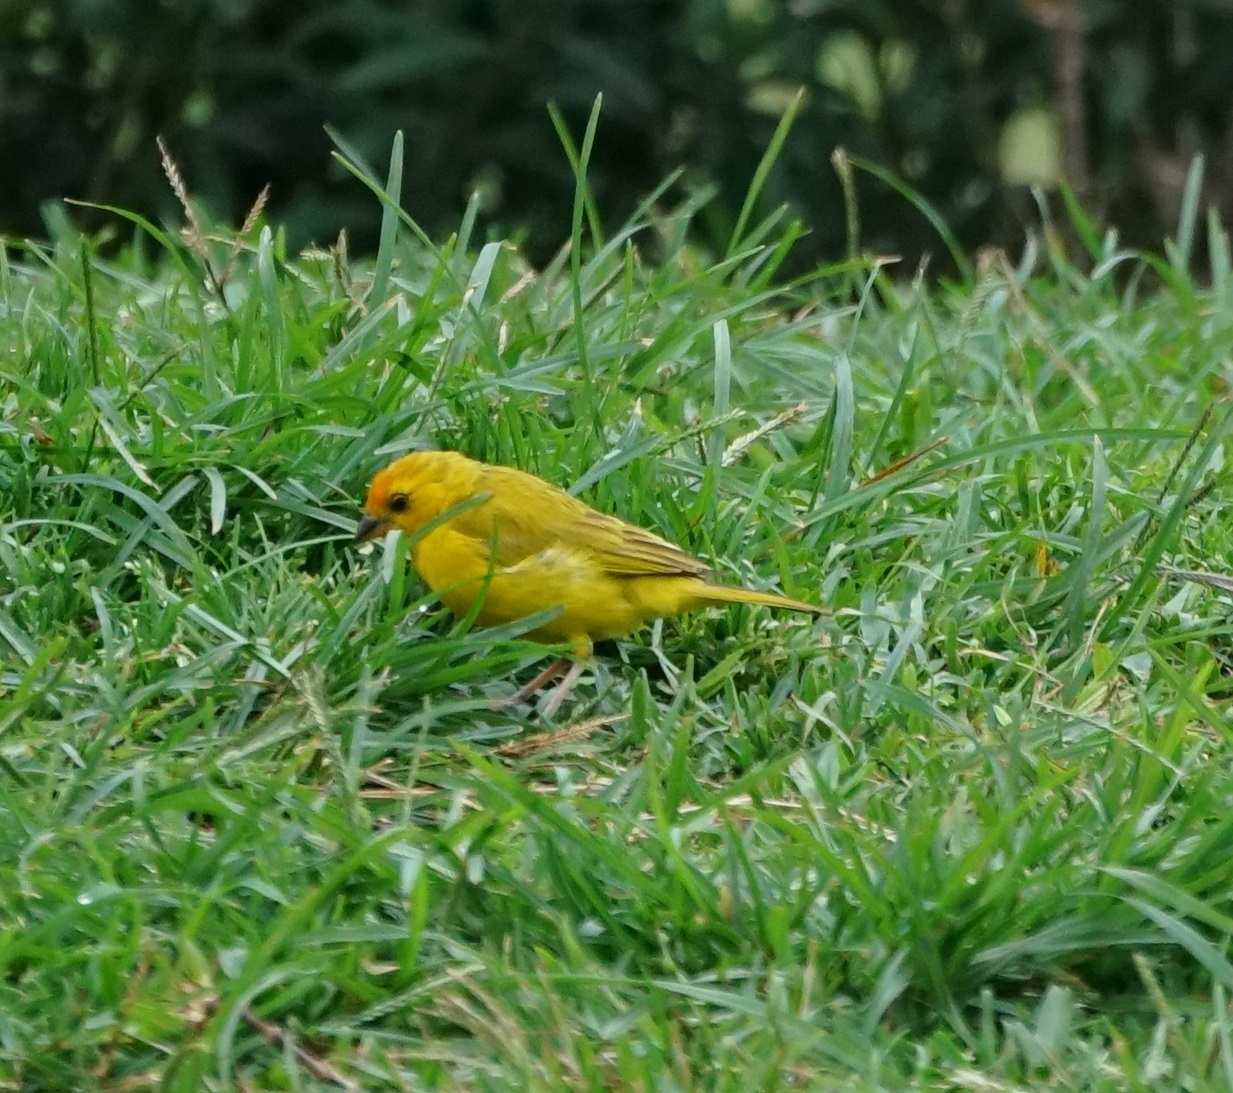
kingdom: Animalia
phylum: Chordata
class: Aves
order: Passeriformes
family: Thraupidae
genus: Sicalis
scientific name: Sicalis flaveola
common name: Saffron finch
